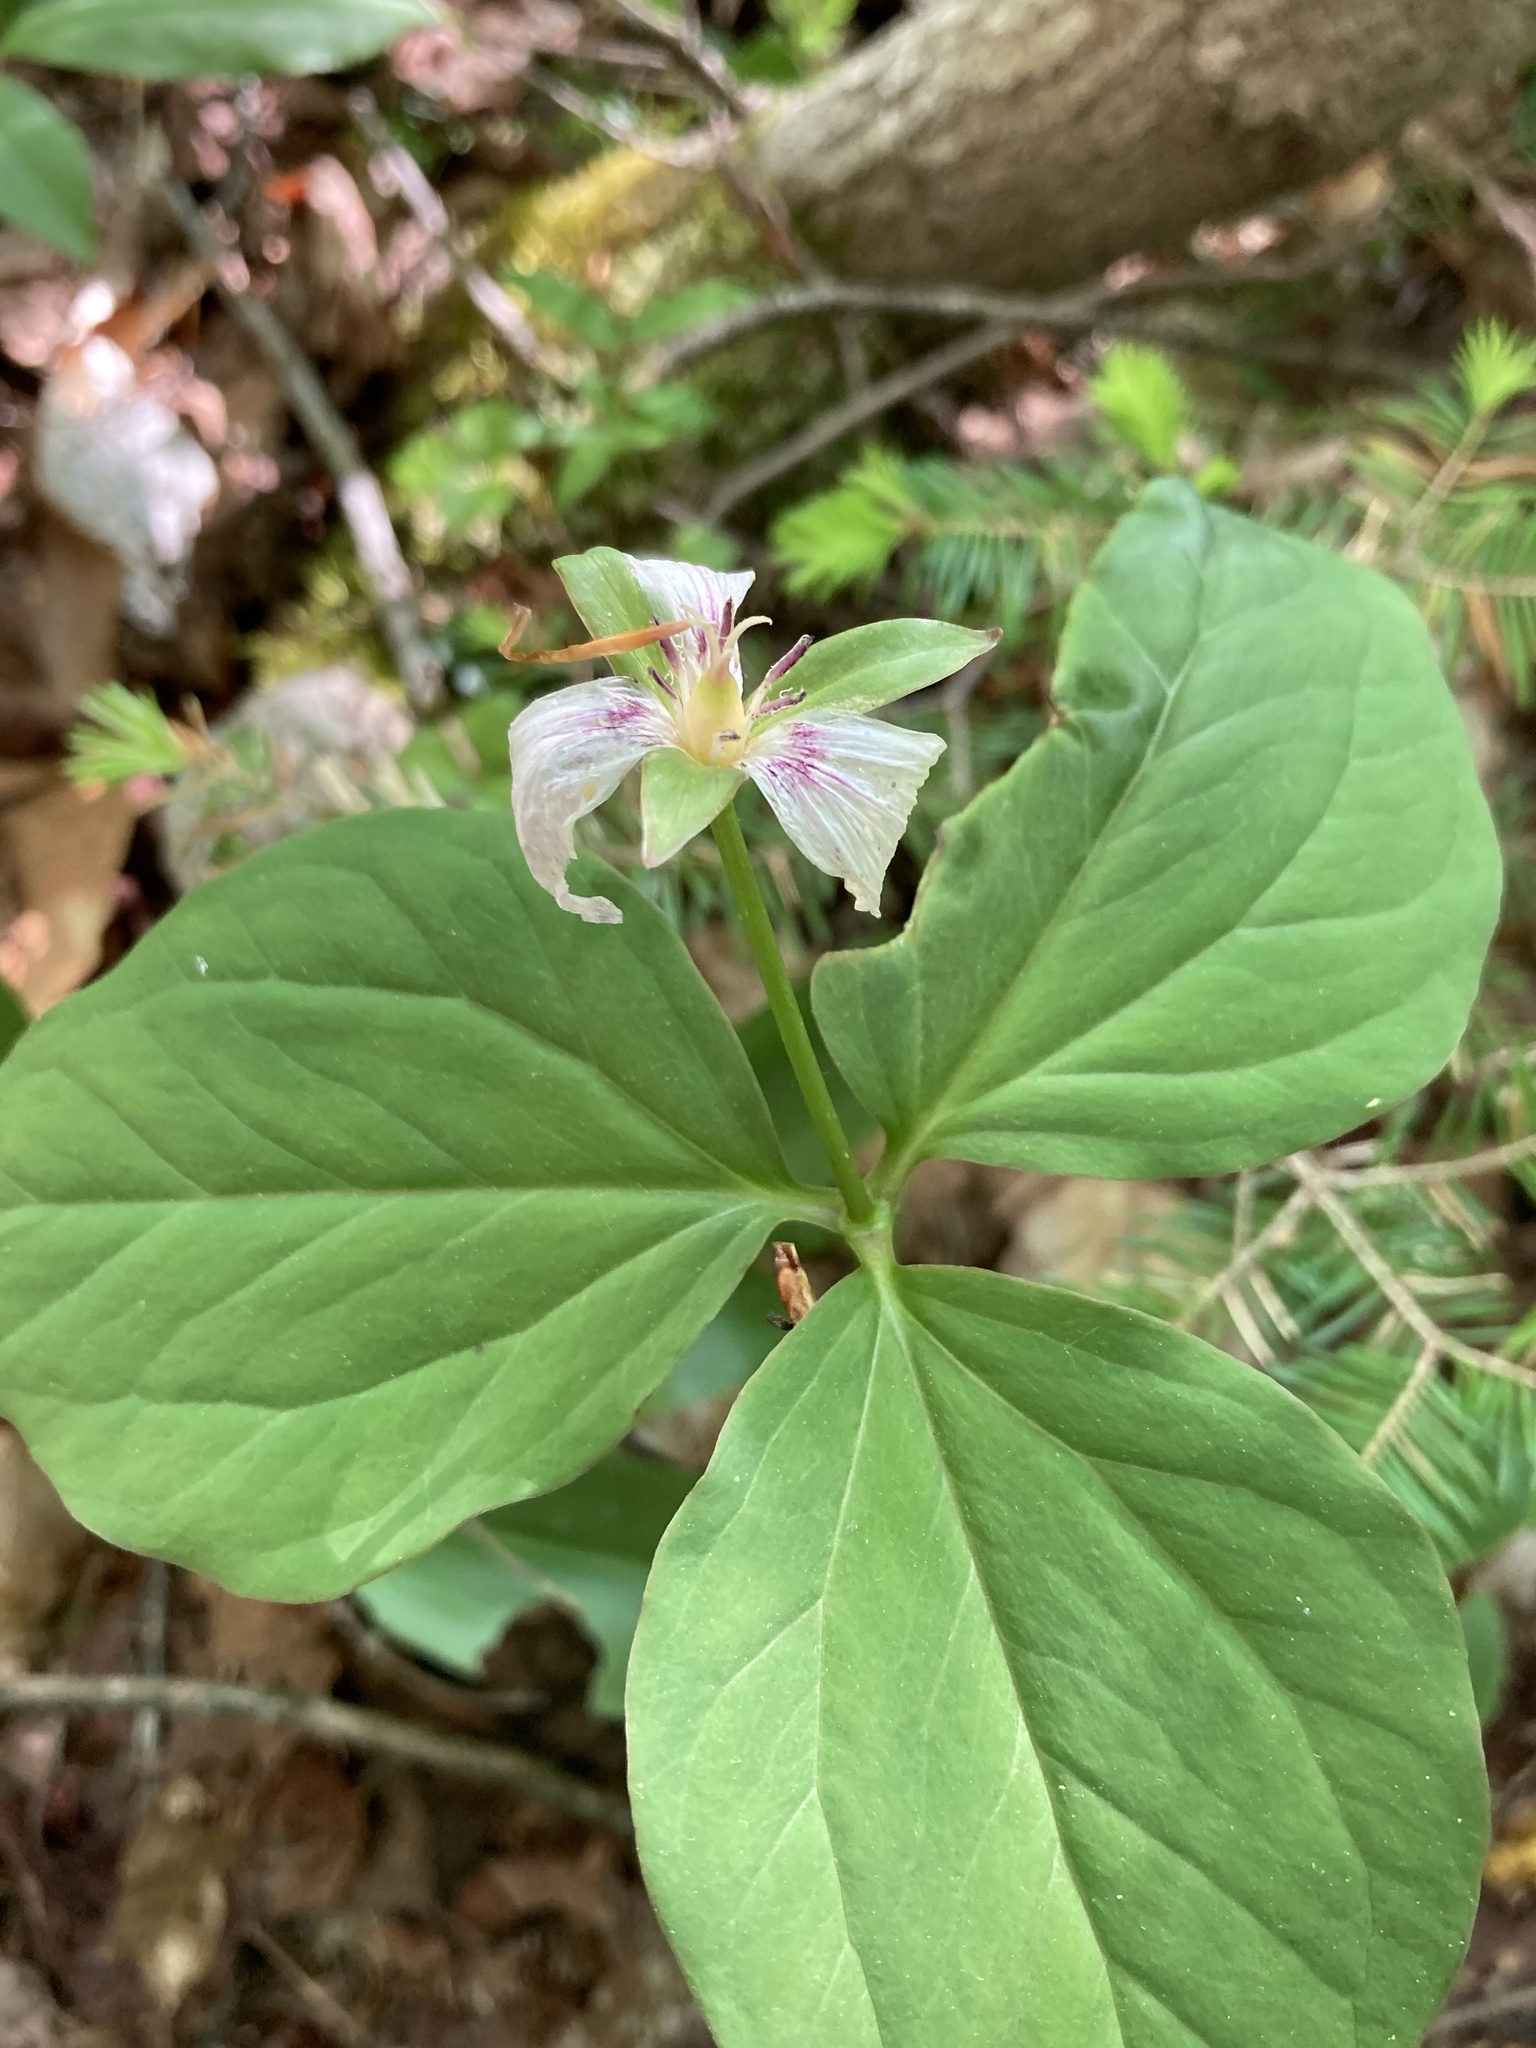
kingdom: Plantae
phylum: Tracheophyta
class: Liliopsida
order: Liliales
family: Melanthiaceae
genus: Trillium
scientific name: Trillium undulatum
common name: Paint trillium
